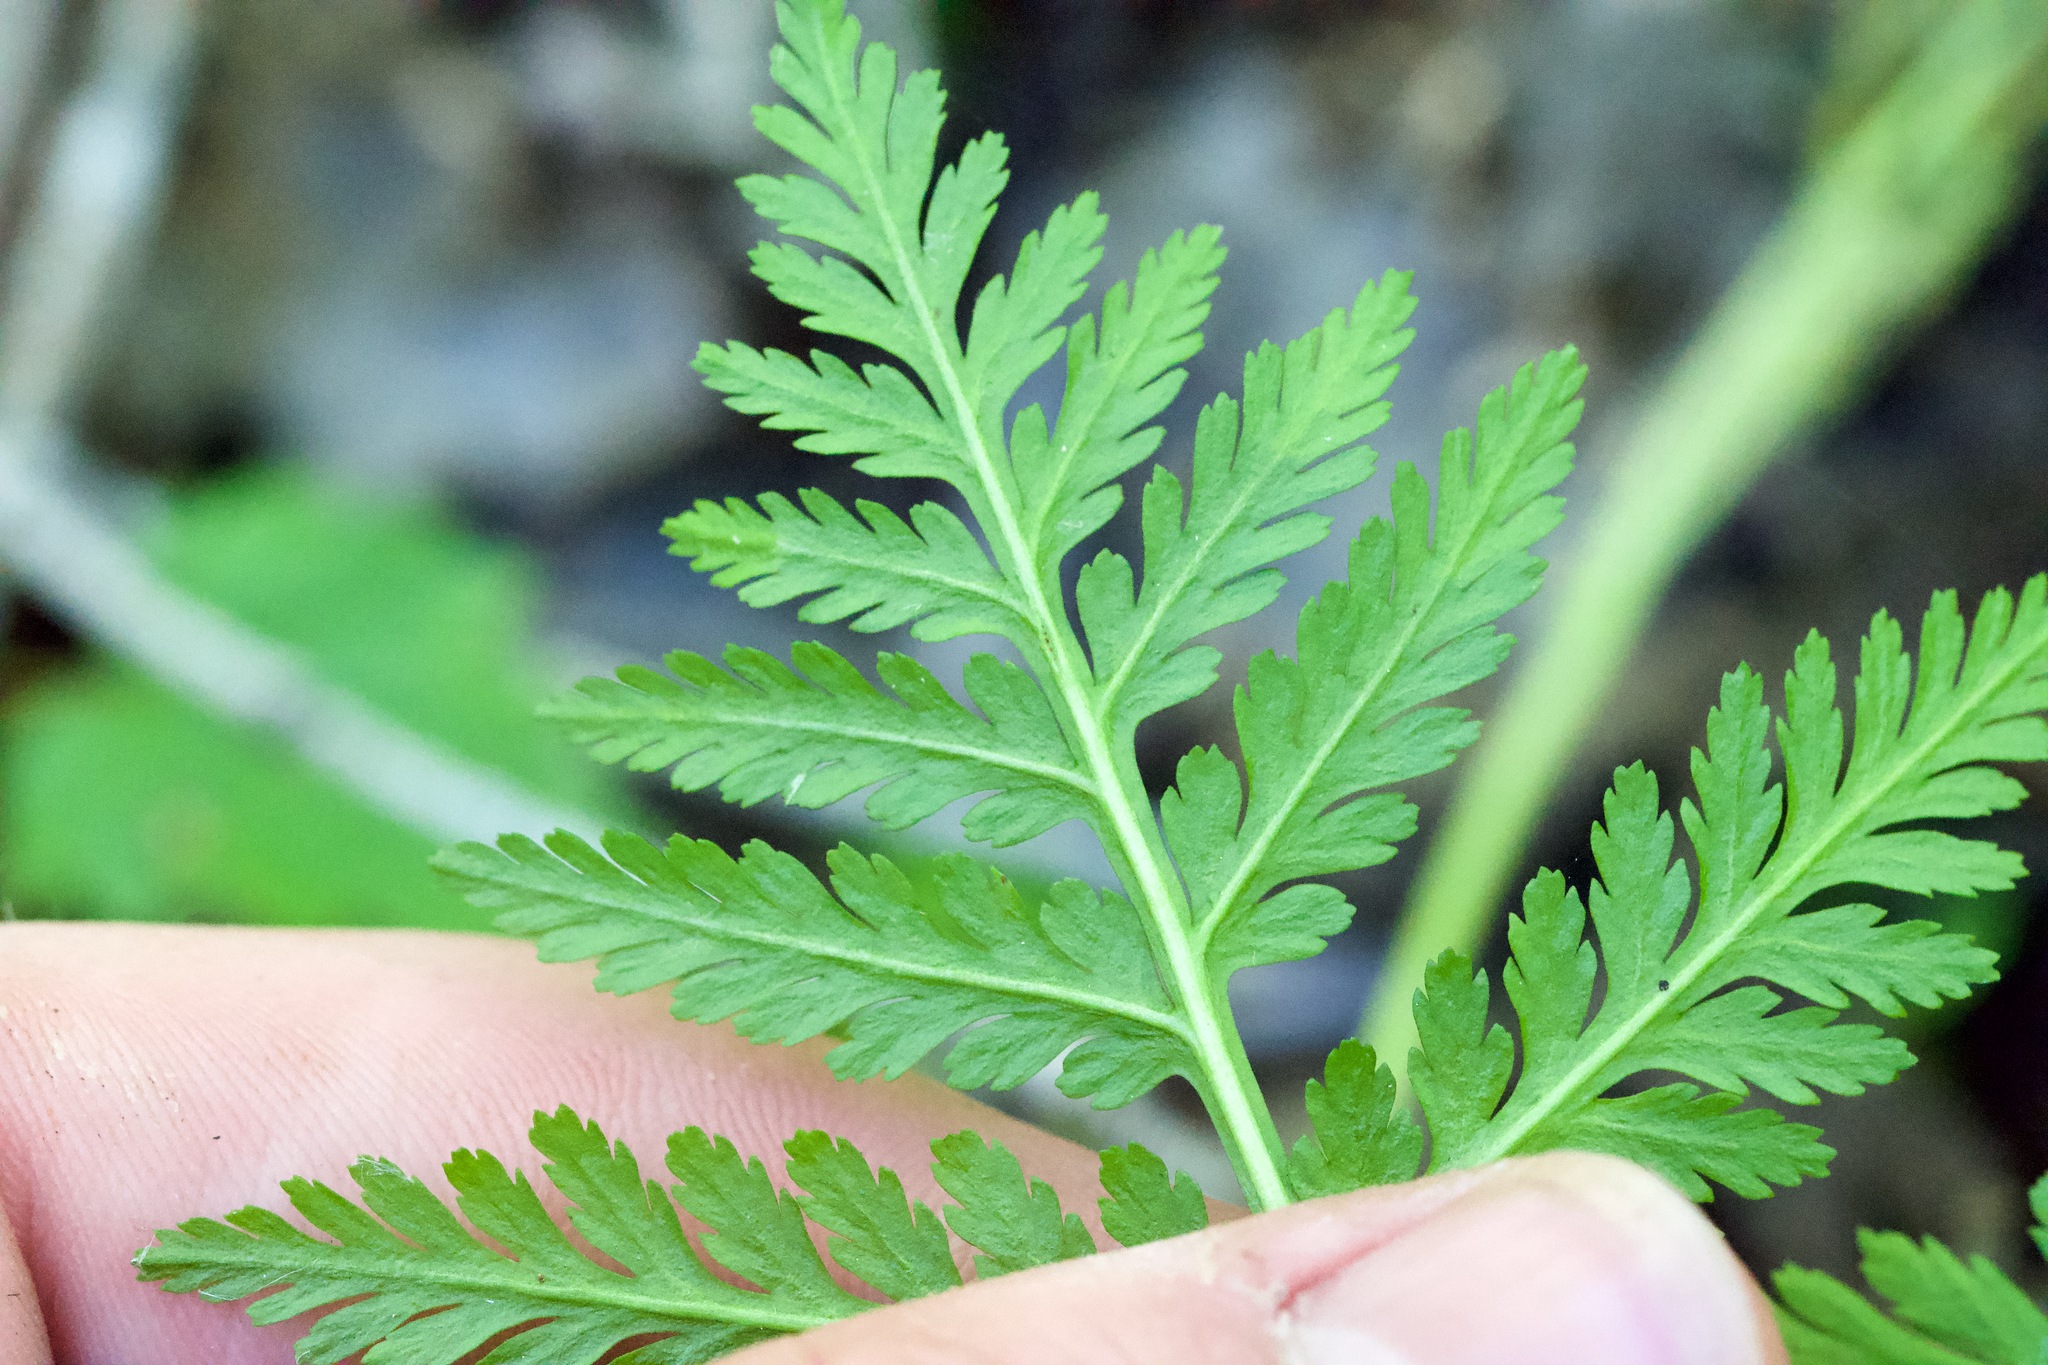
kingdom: Plantae
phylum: Tracheophyta
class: Polypodiopsida
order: Ophioglossales
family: Ophioglossaceae
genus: Botrypus
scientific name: Botrypus virginianus
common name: Common grapefern
